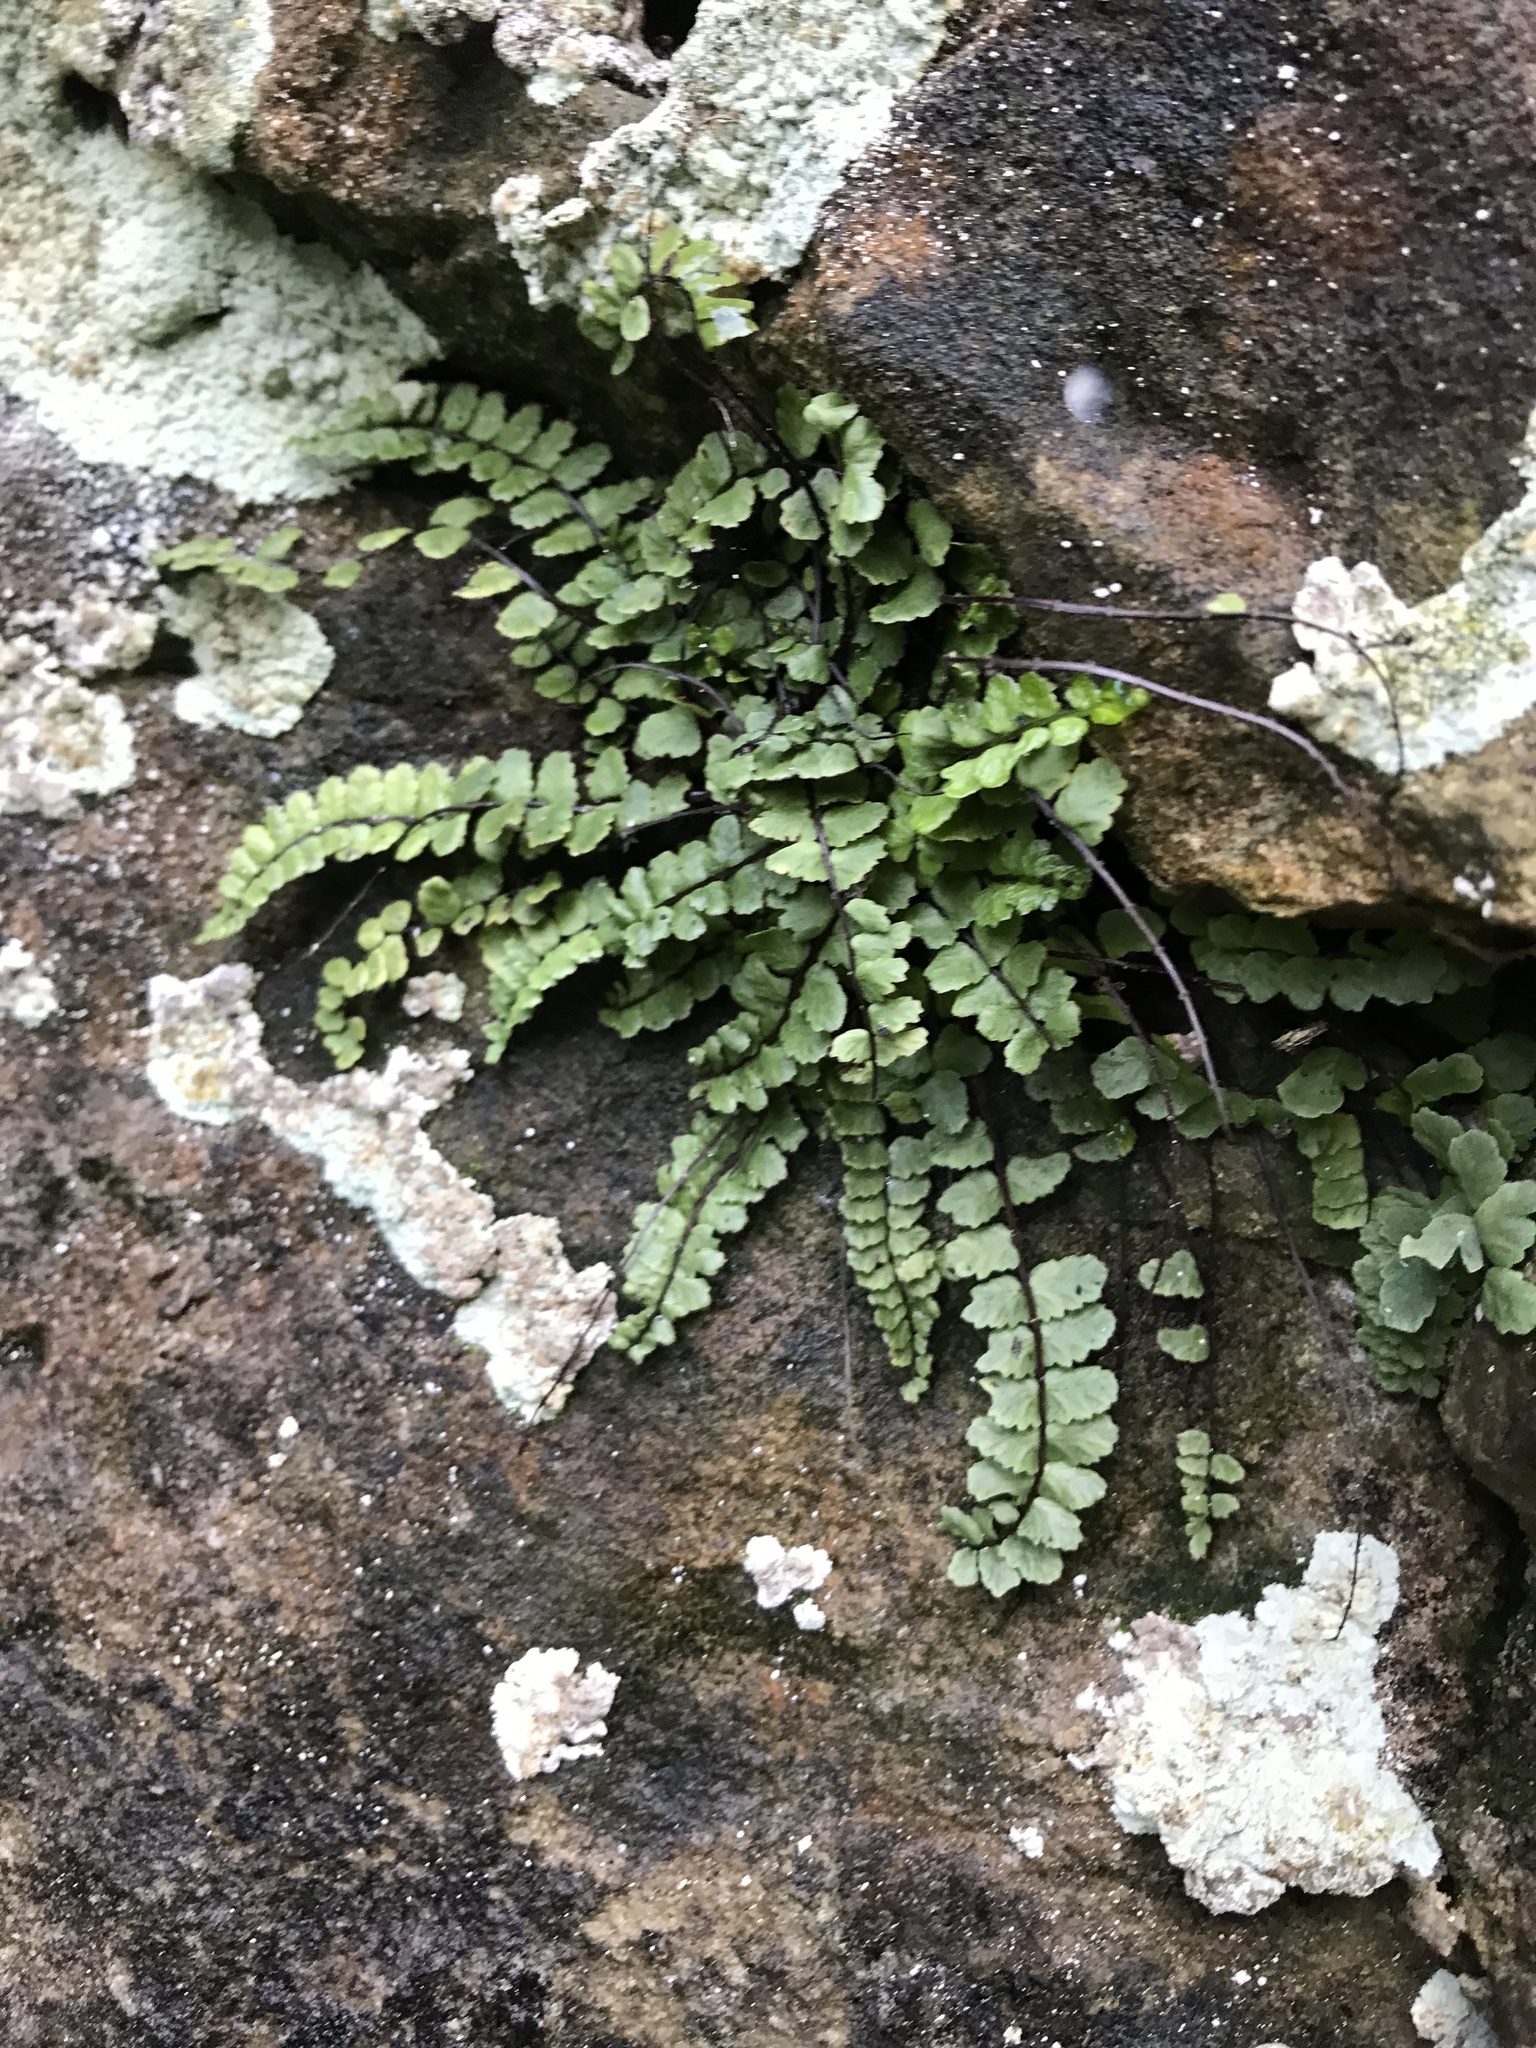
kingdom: Plantae
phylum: Tracheophyta
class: Polypodiopsida
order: Polypodiales
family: Aspleniaceae
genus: Asplenium
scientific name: Asplenium trichomanes
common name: Maidenhair spleenwort
